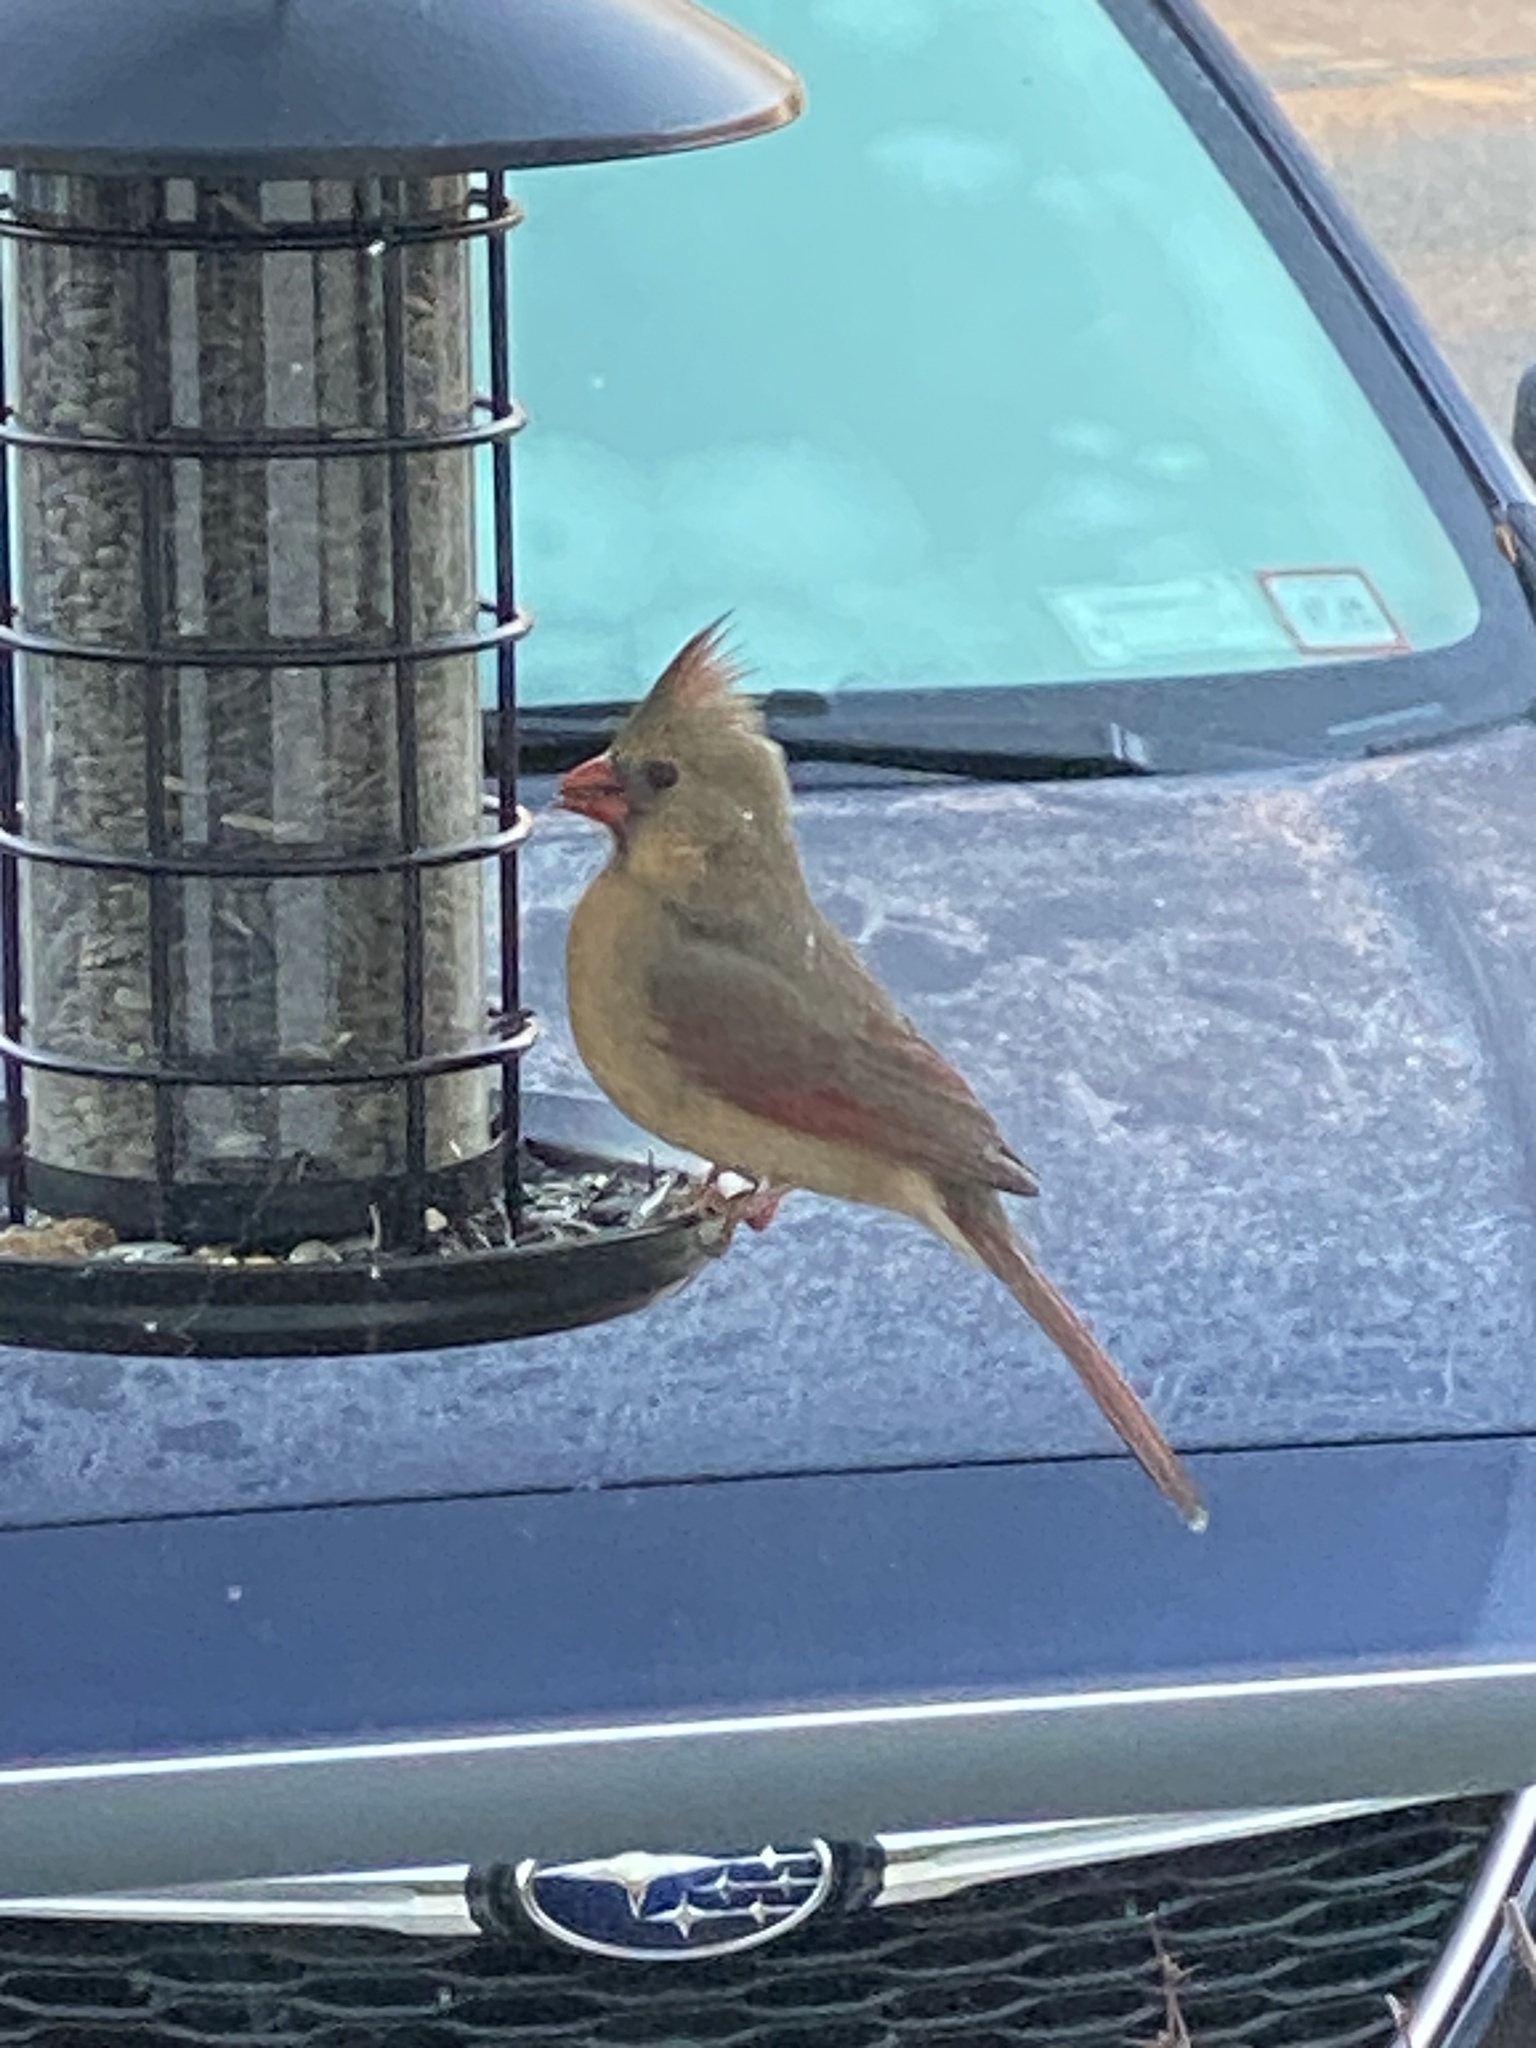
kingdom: Animalia
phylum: Chordata
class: Aves
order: Passeriformes
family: Cardinalidae
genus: Cardinalis
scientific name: Cardinalis cardinalis
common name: Northern cardinal
